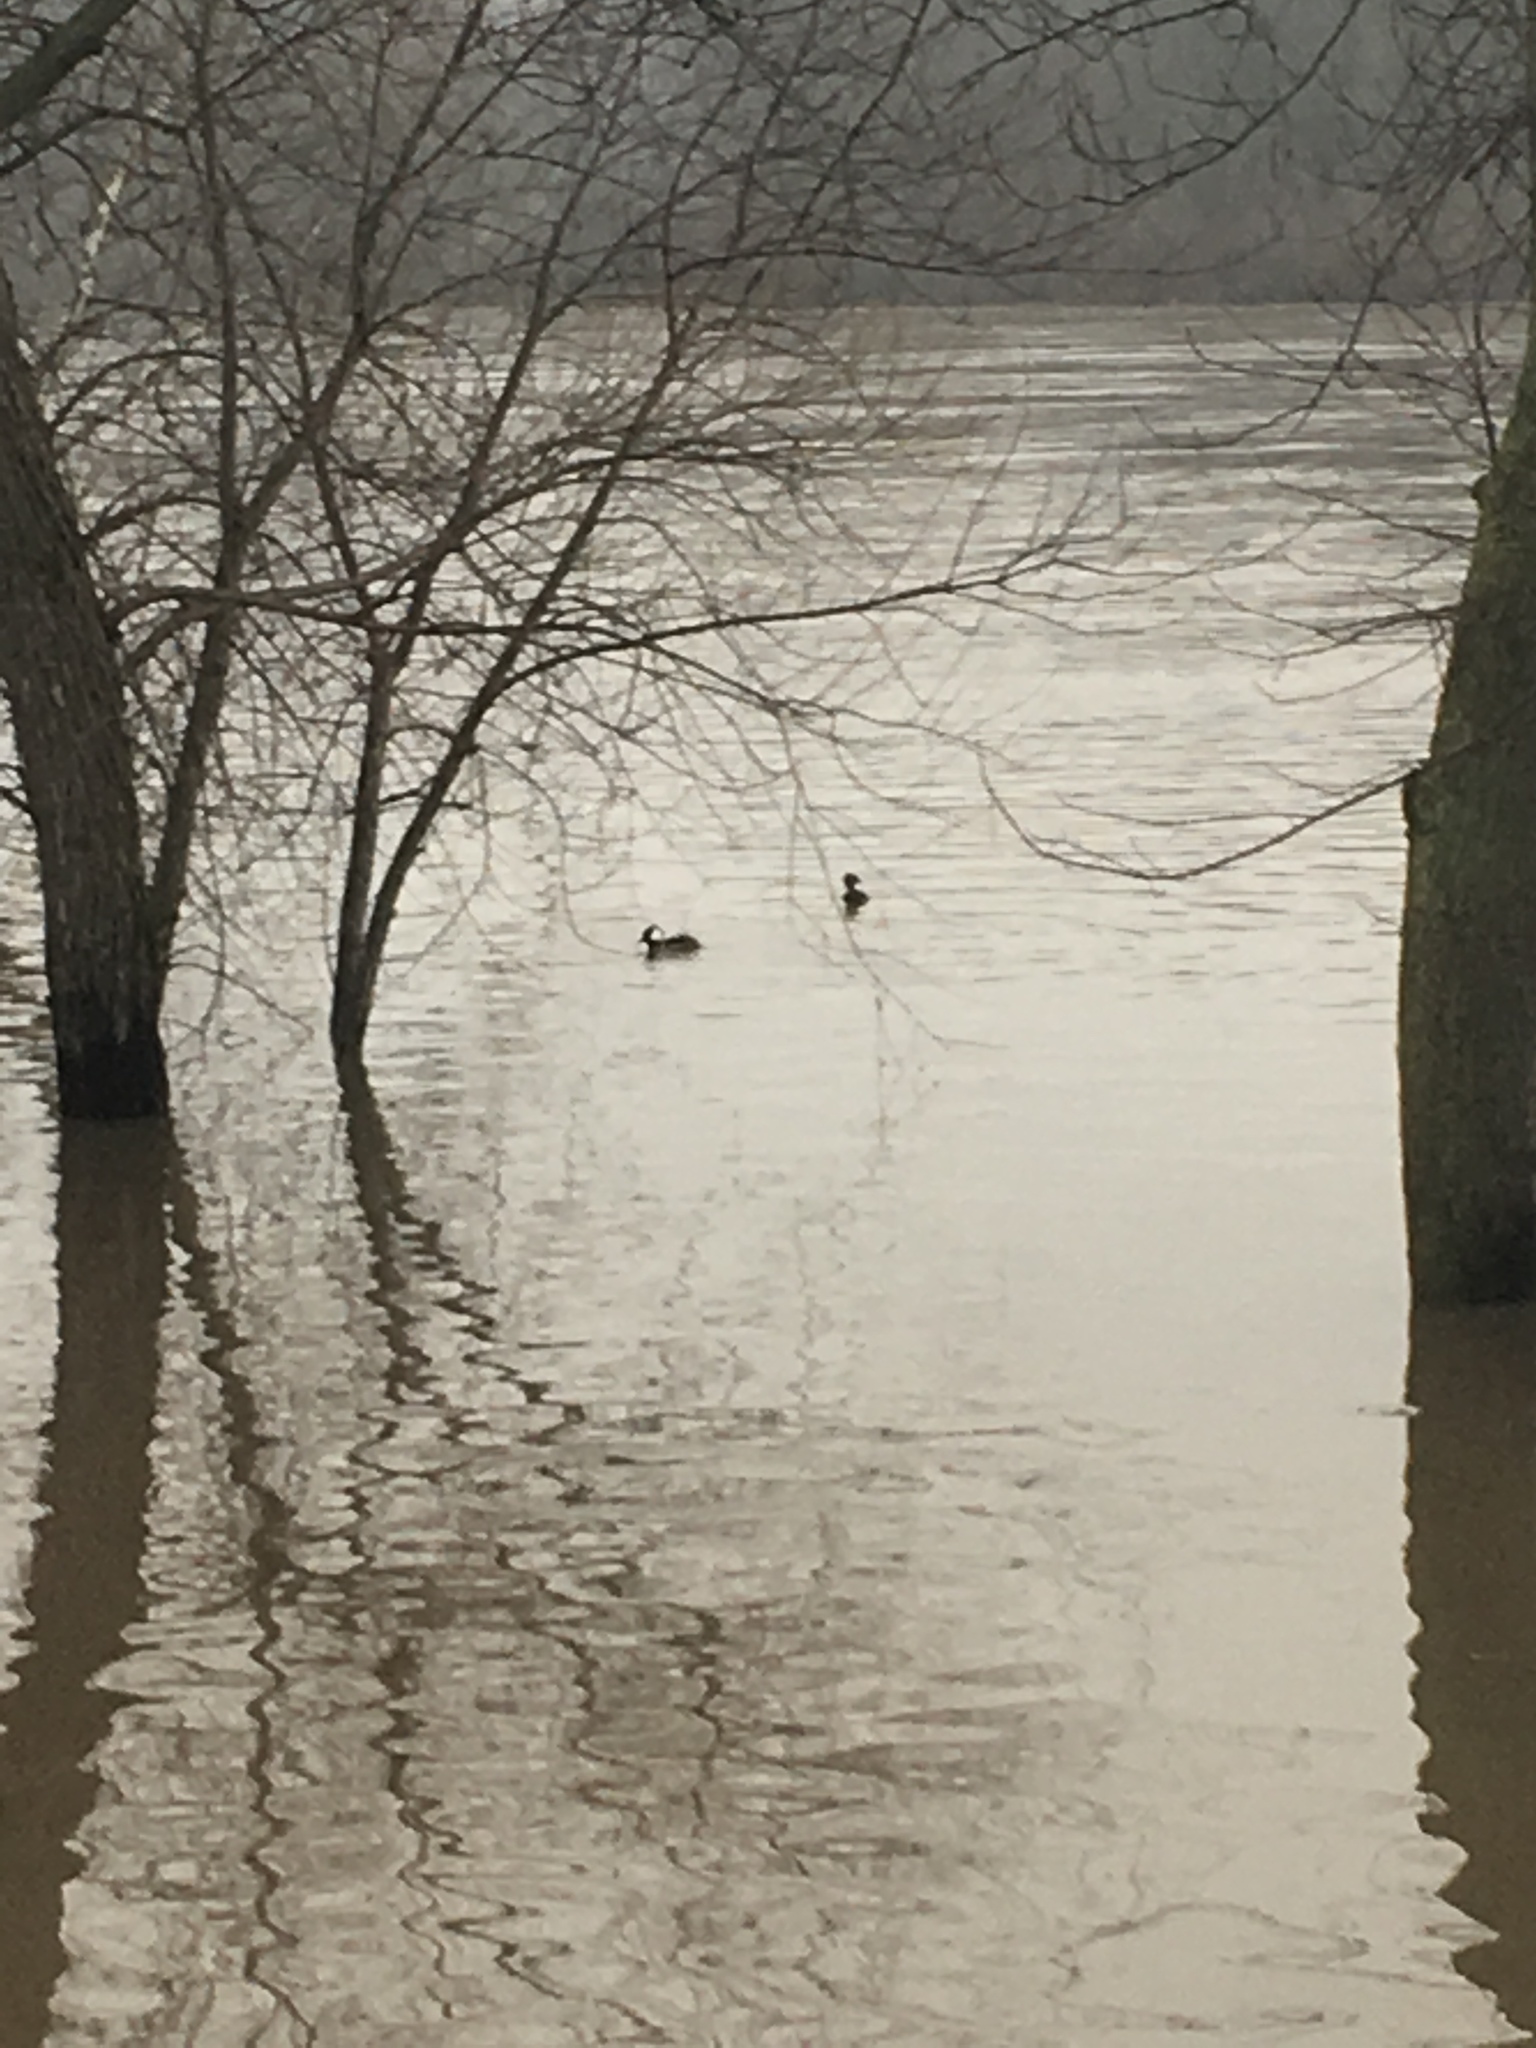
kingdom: Animalia
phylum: Chordata
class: Aves
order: Anseriformes
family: Anatidae
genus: Lophodytes
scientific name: Lophodytes cucullatus
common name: Hooded merganser
